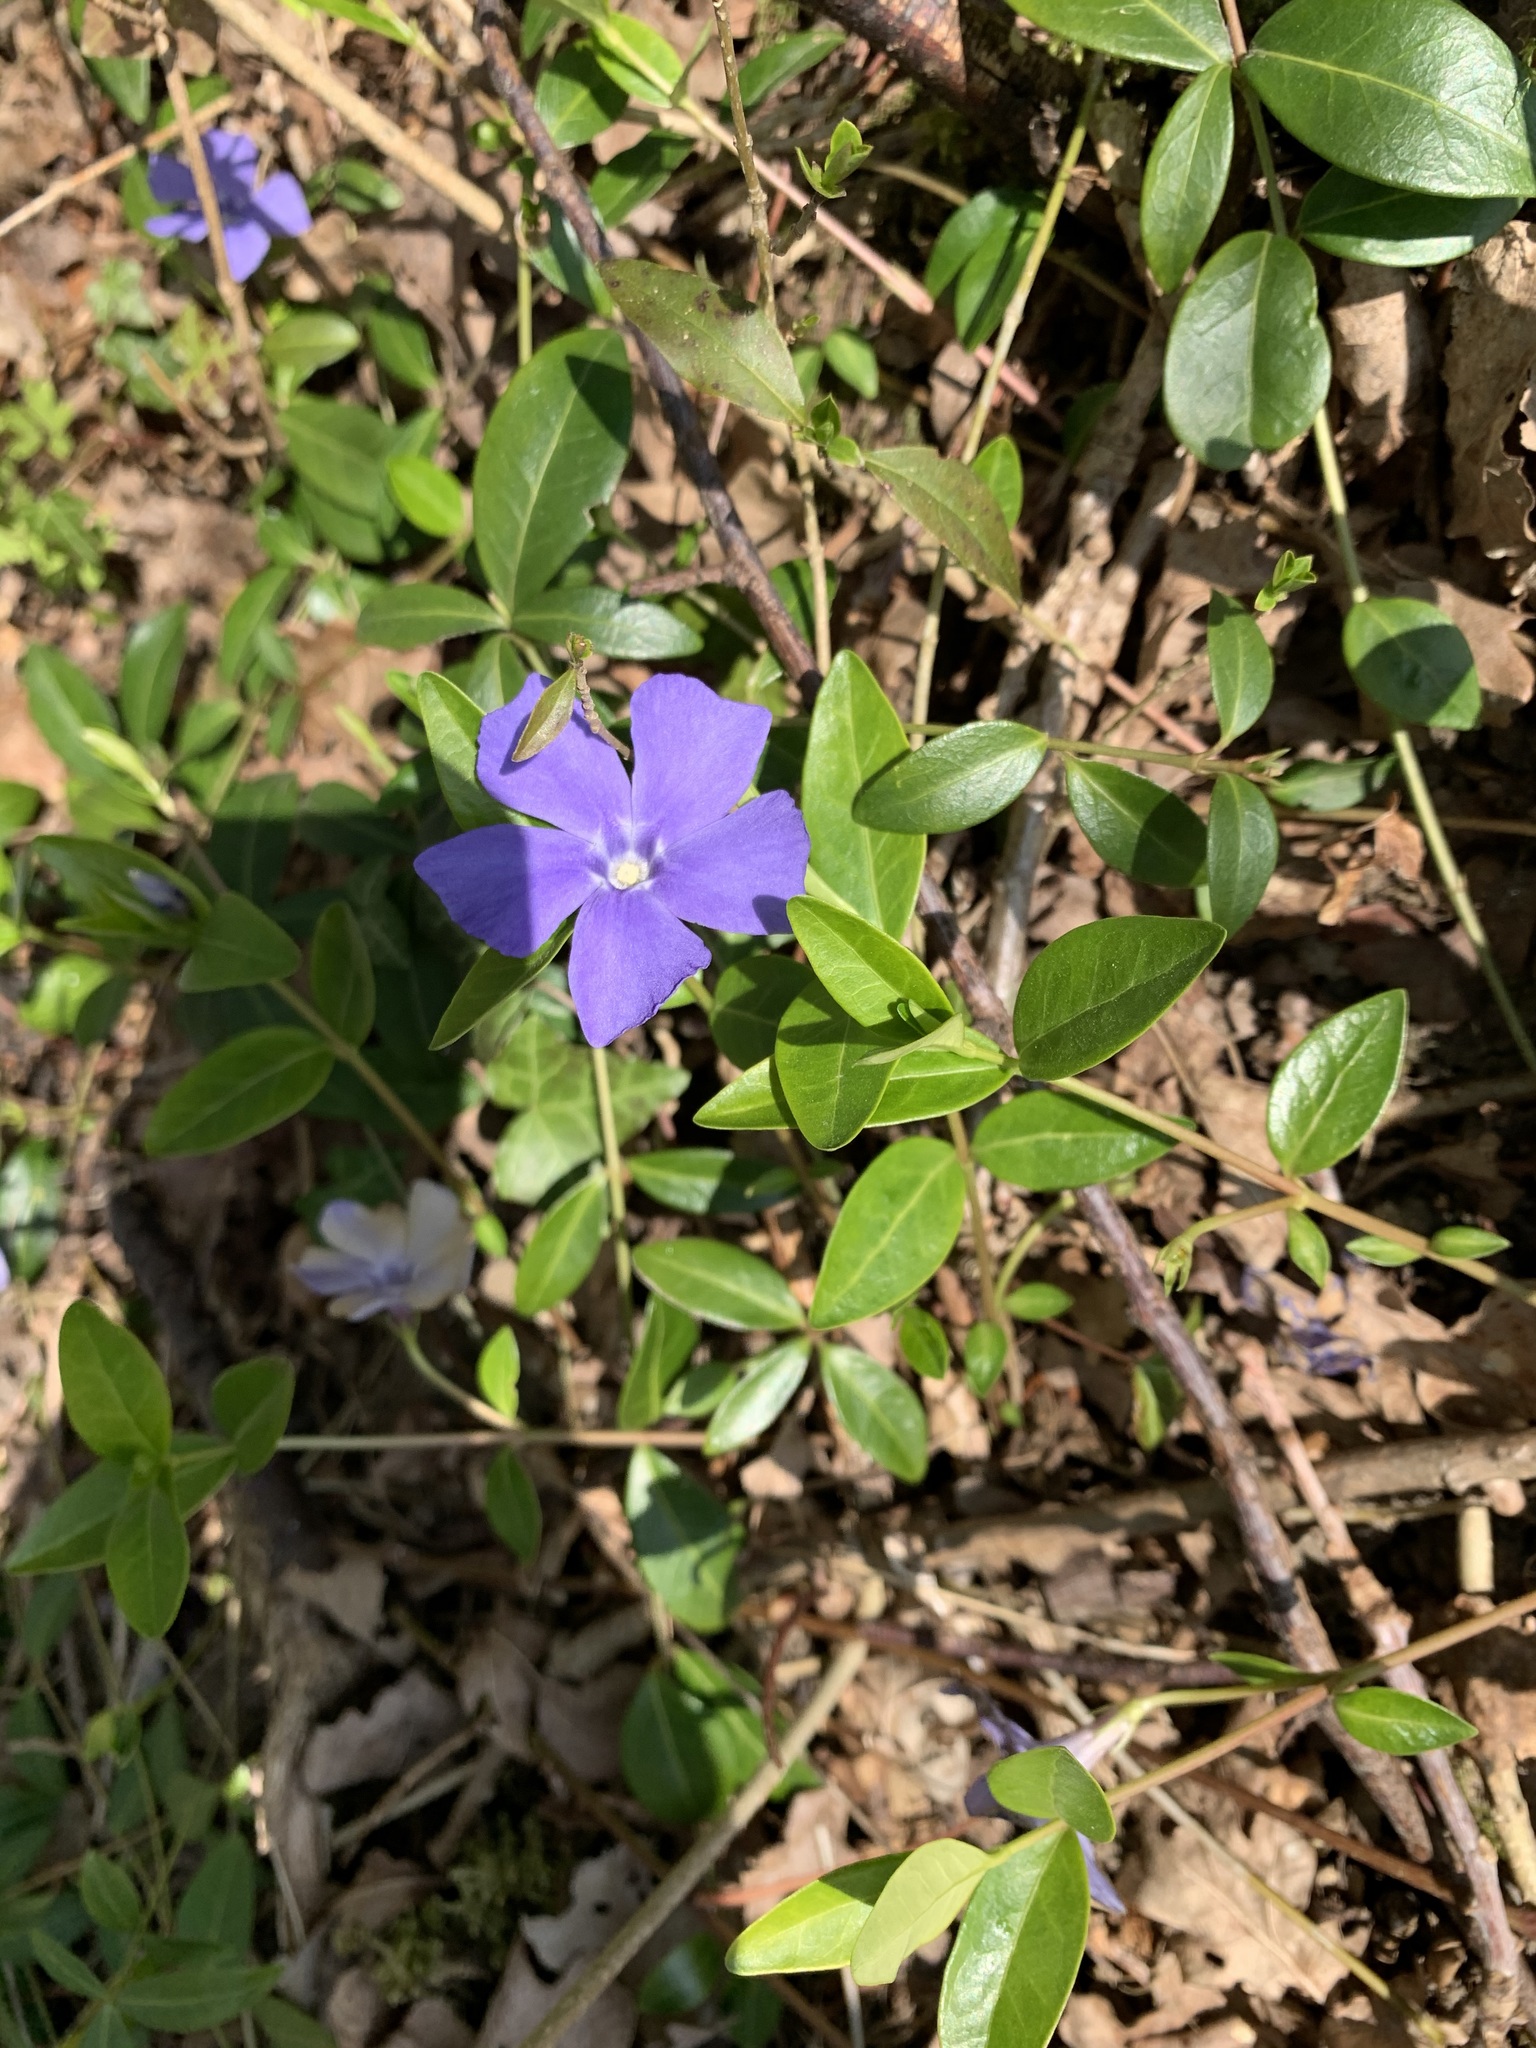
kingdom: Plantae
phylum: Tracheophyta
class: Magnoliopsida
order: Gentianales
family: Apocynaceae
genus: Vinca
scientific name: Vinca minor
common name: Lesser periwinkle
